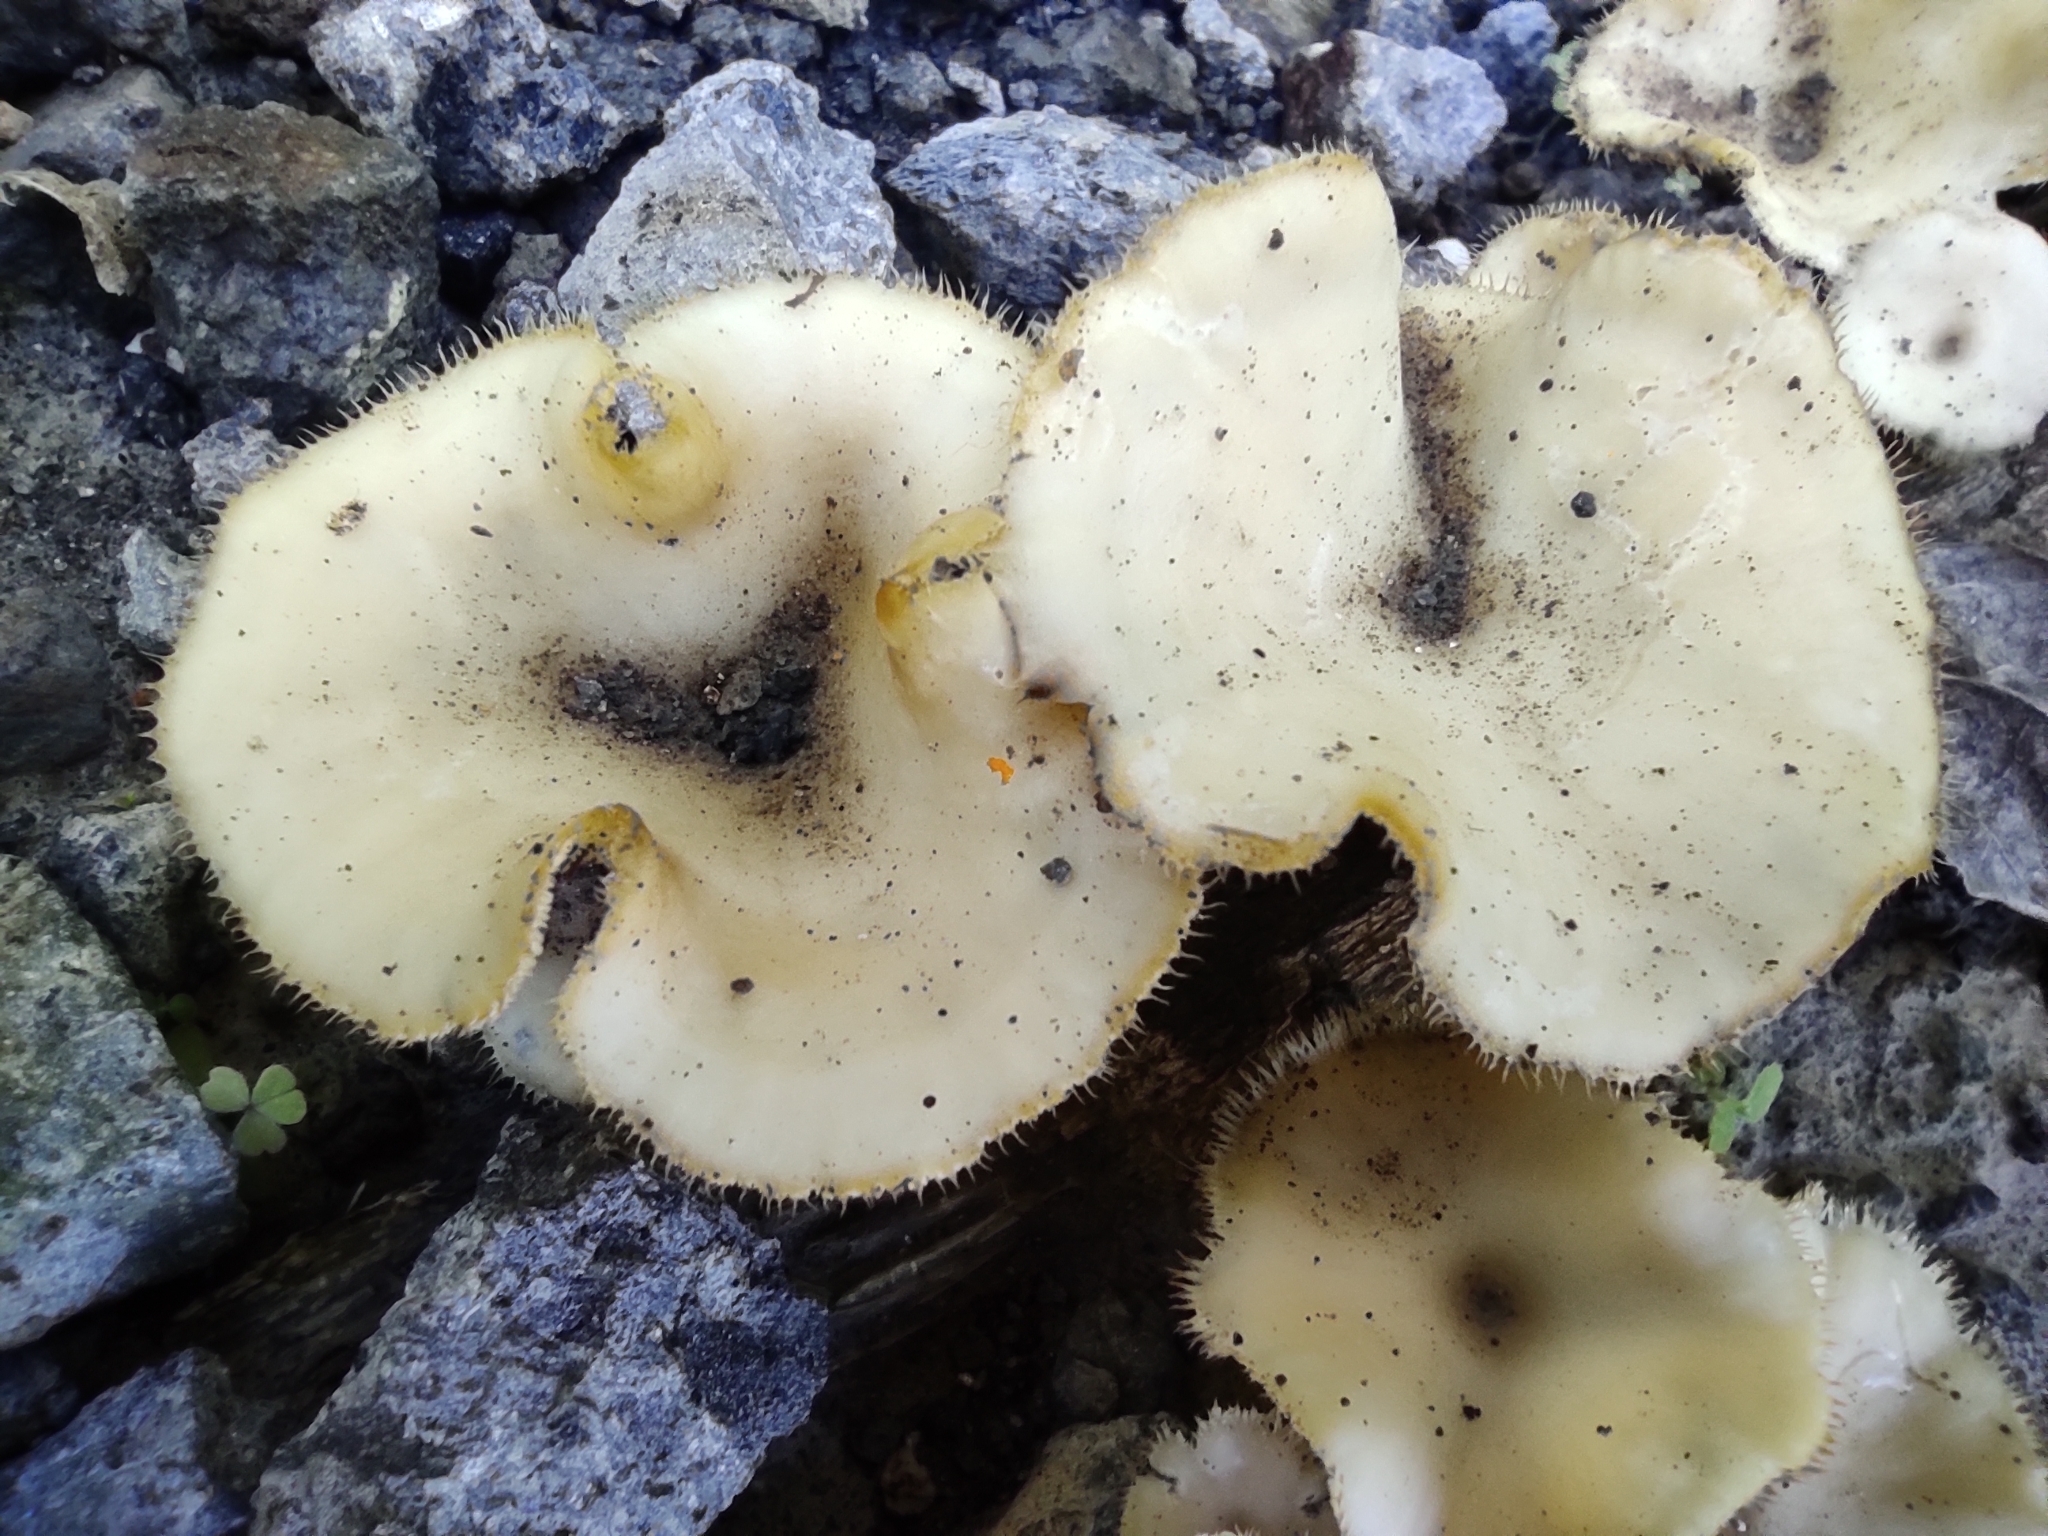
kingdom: Fungi
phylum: Basidiomycota
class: Agaricomycetes
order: Polyporales
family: Polyporaceae
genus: Lentinus
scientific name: Lentinus flexipes
